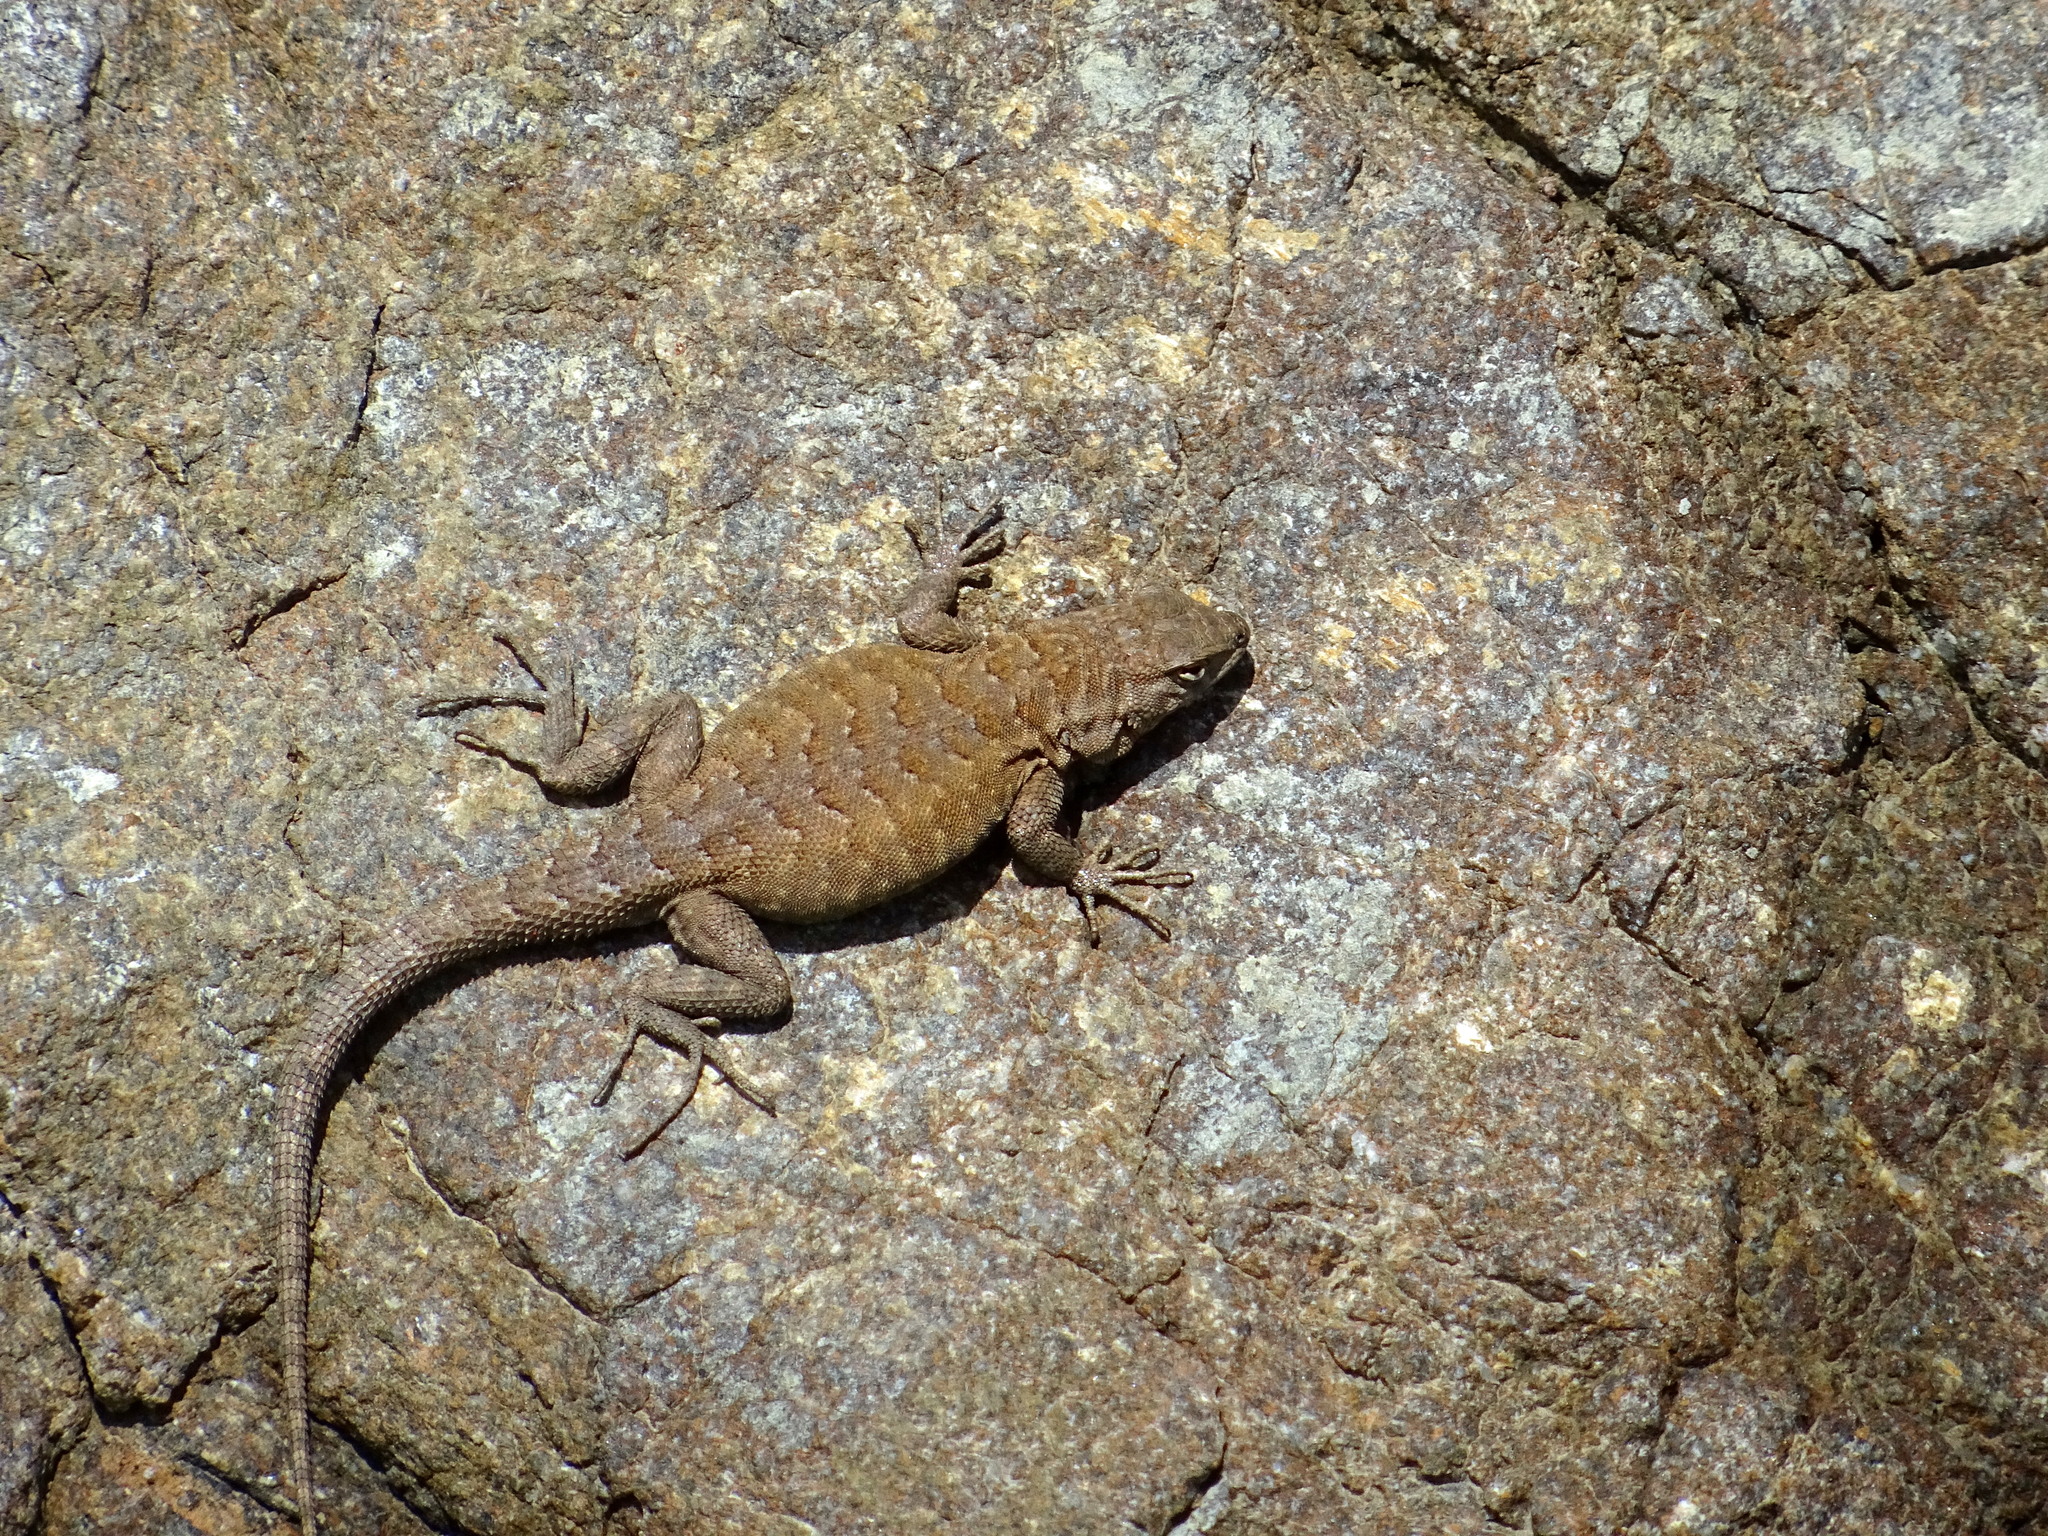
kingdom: Animalia
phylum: Chordata
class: Squamata
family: Phrynosomatidae
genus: Uta
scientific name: Uta stansburiana
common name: Side-blotched lizard
